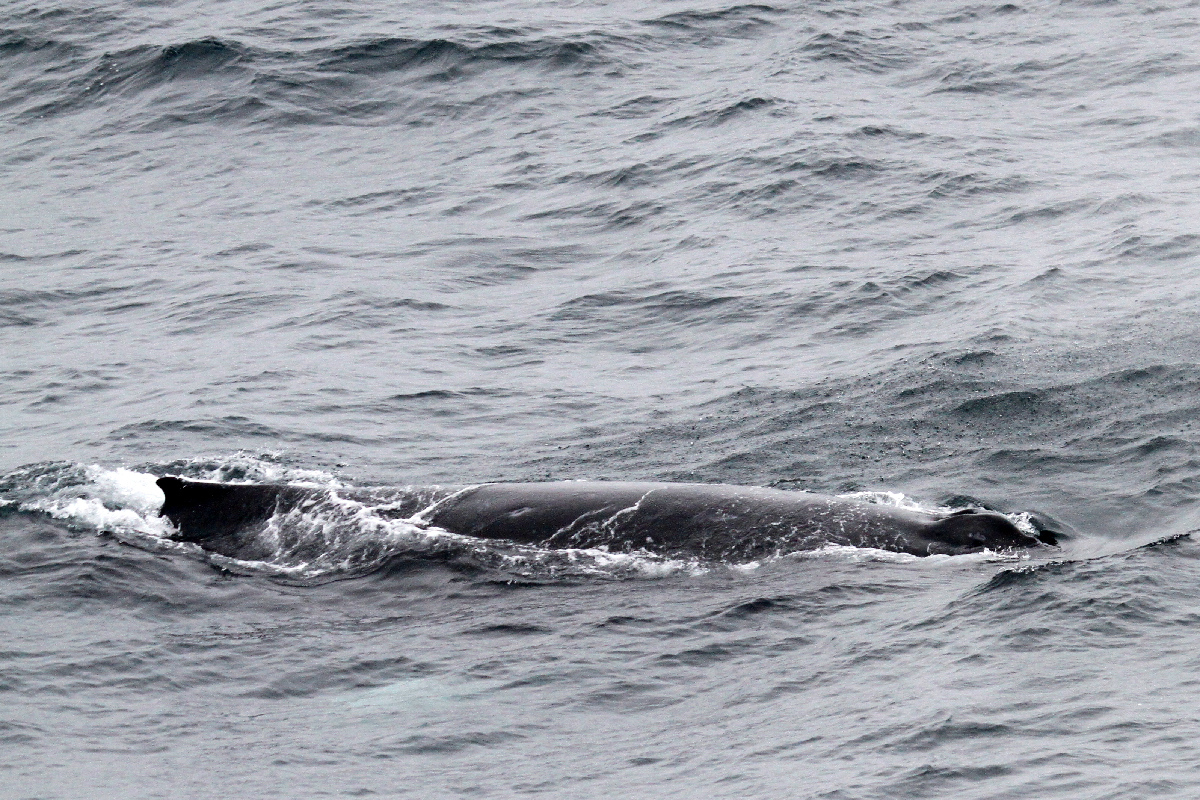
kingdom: Animalia
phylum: Chordata
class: Mammalia
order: Cetacea
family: Balaenopteridae
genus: Megaptera
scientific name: Megaptera novaeangliae
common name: Humpback whale
